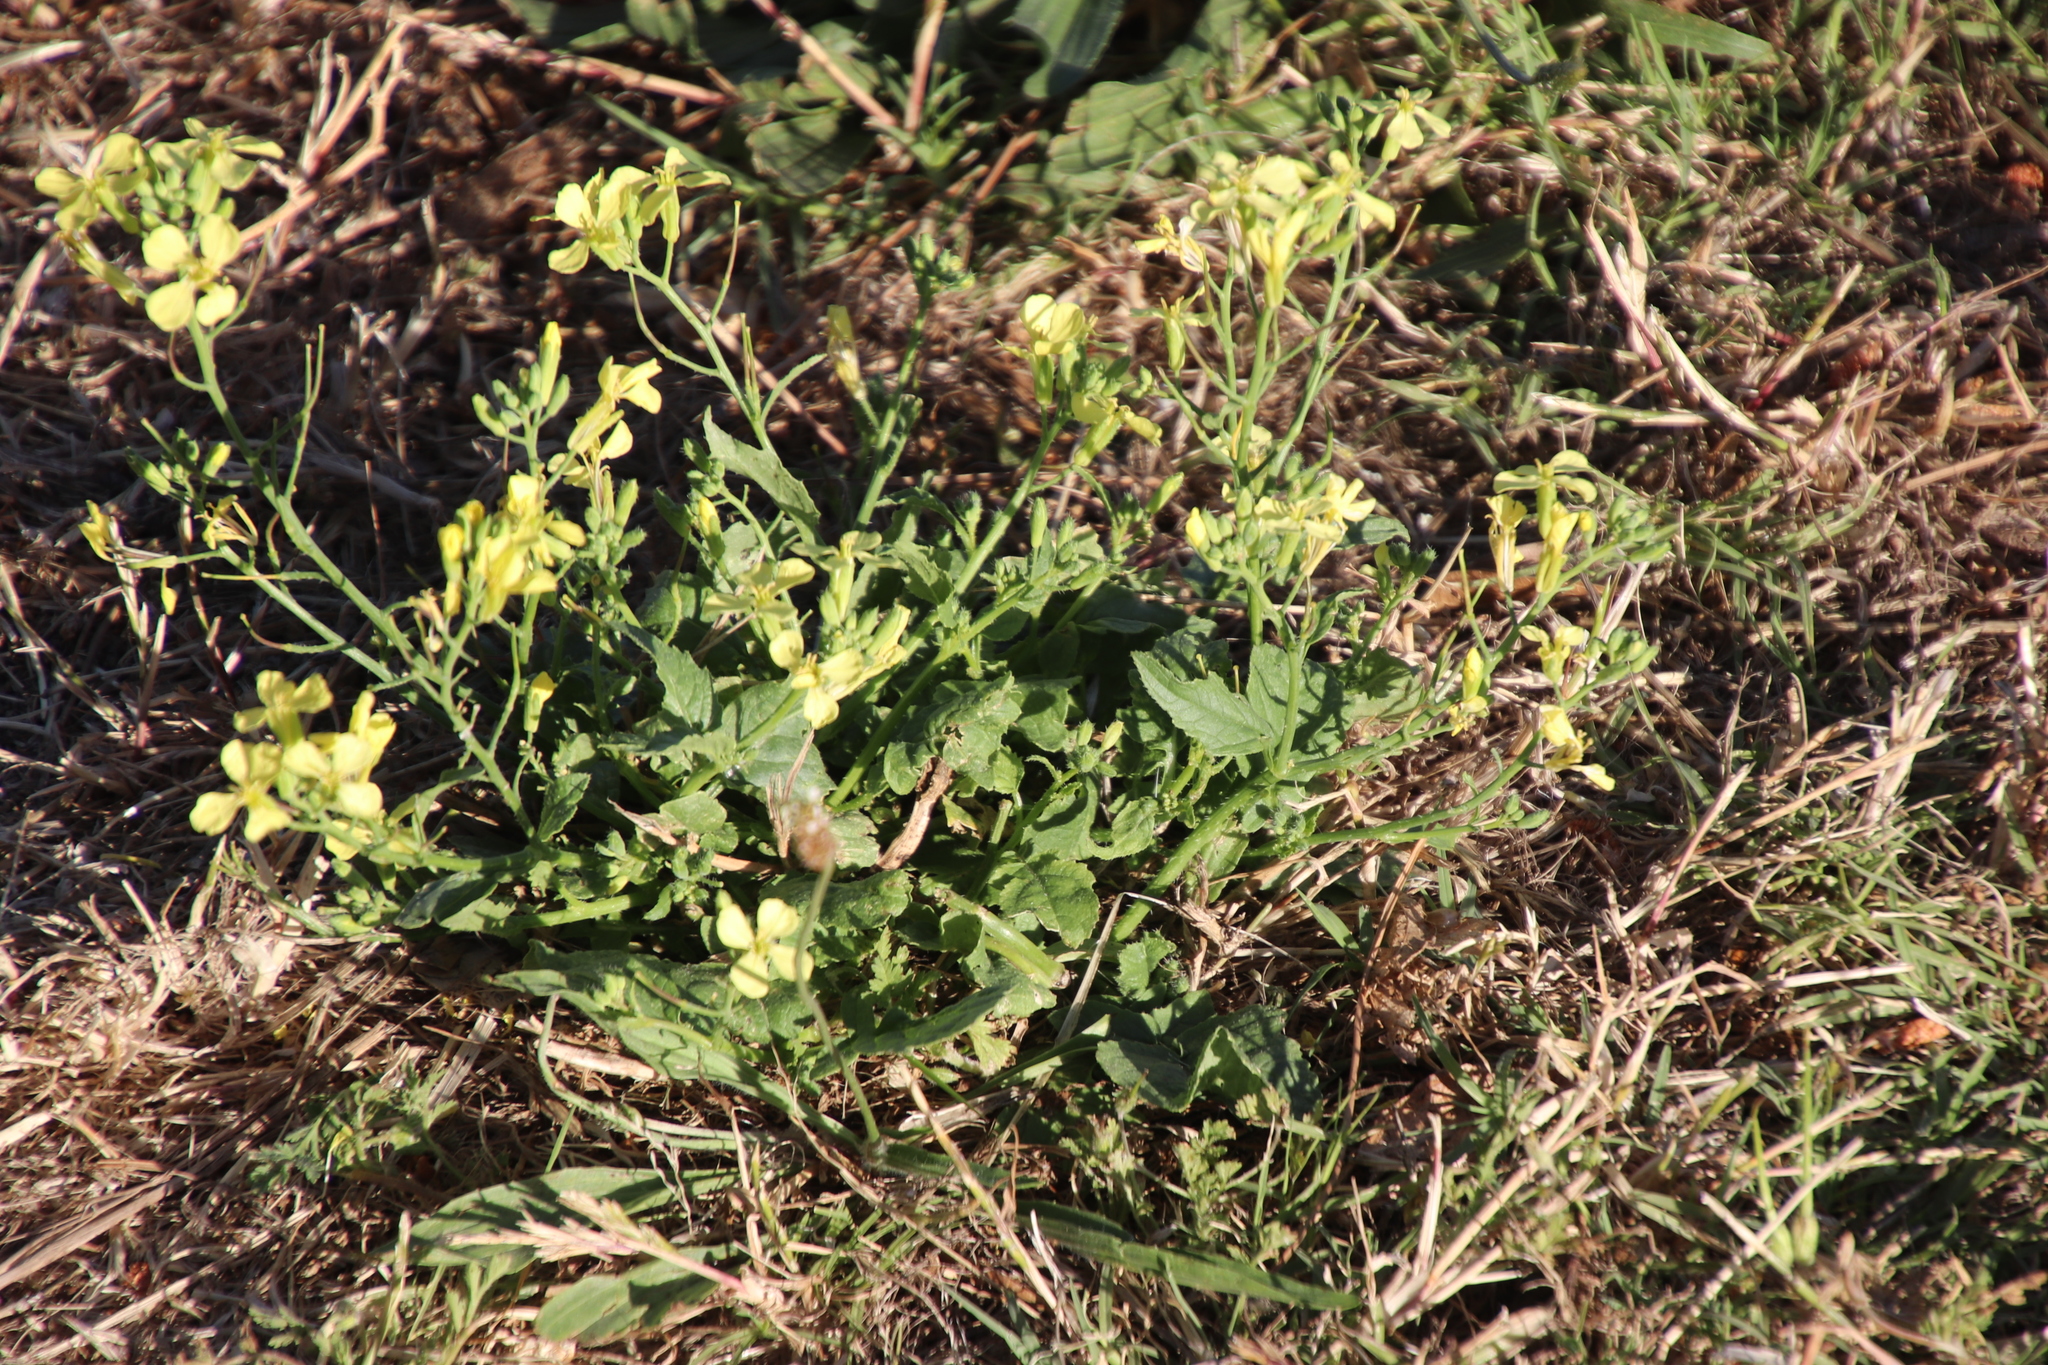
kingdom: Plantae
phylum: Tracheophyta
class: Magnoliopsida
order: Brassicales
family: Brassicaceae
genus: Raphanus
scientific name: Raphanus raphanistrum
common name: Wild radish
